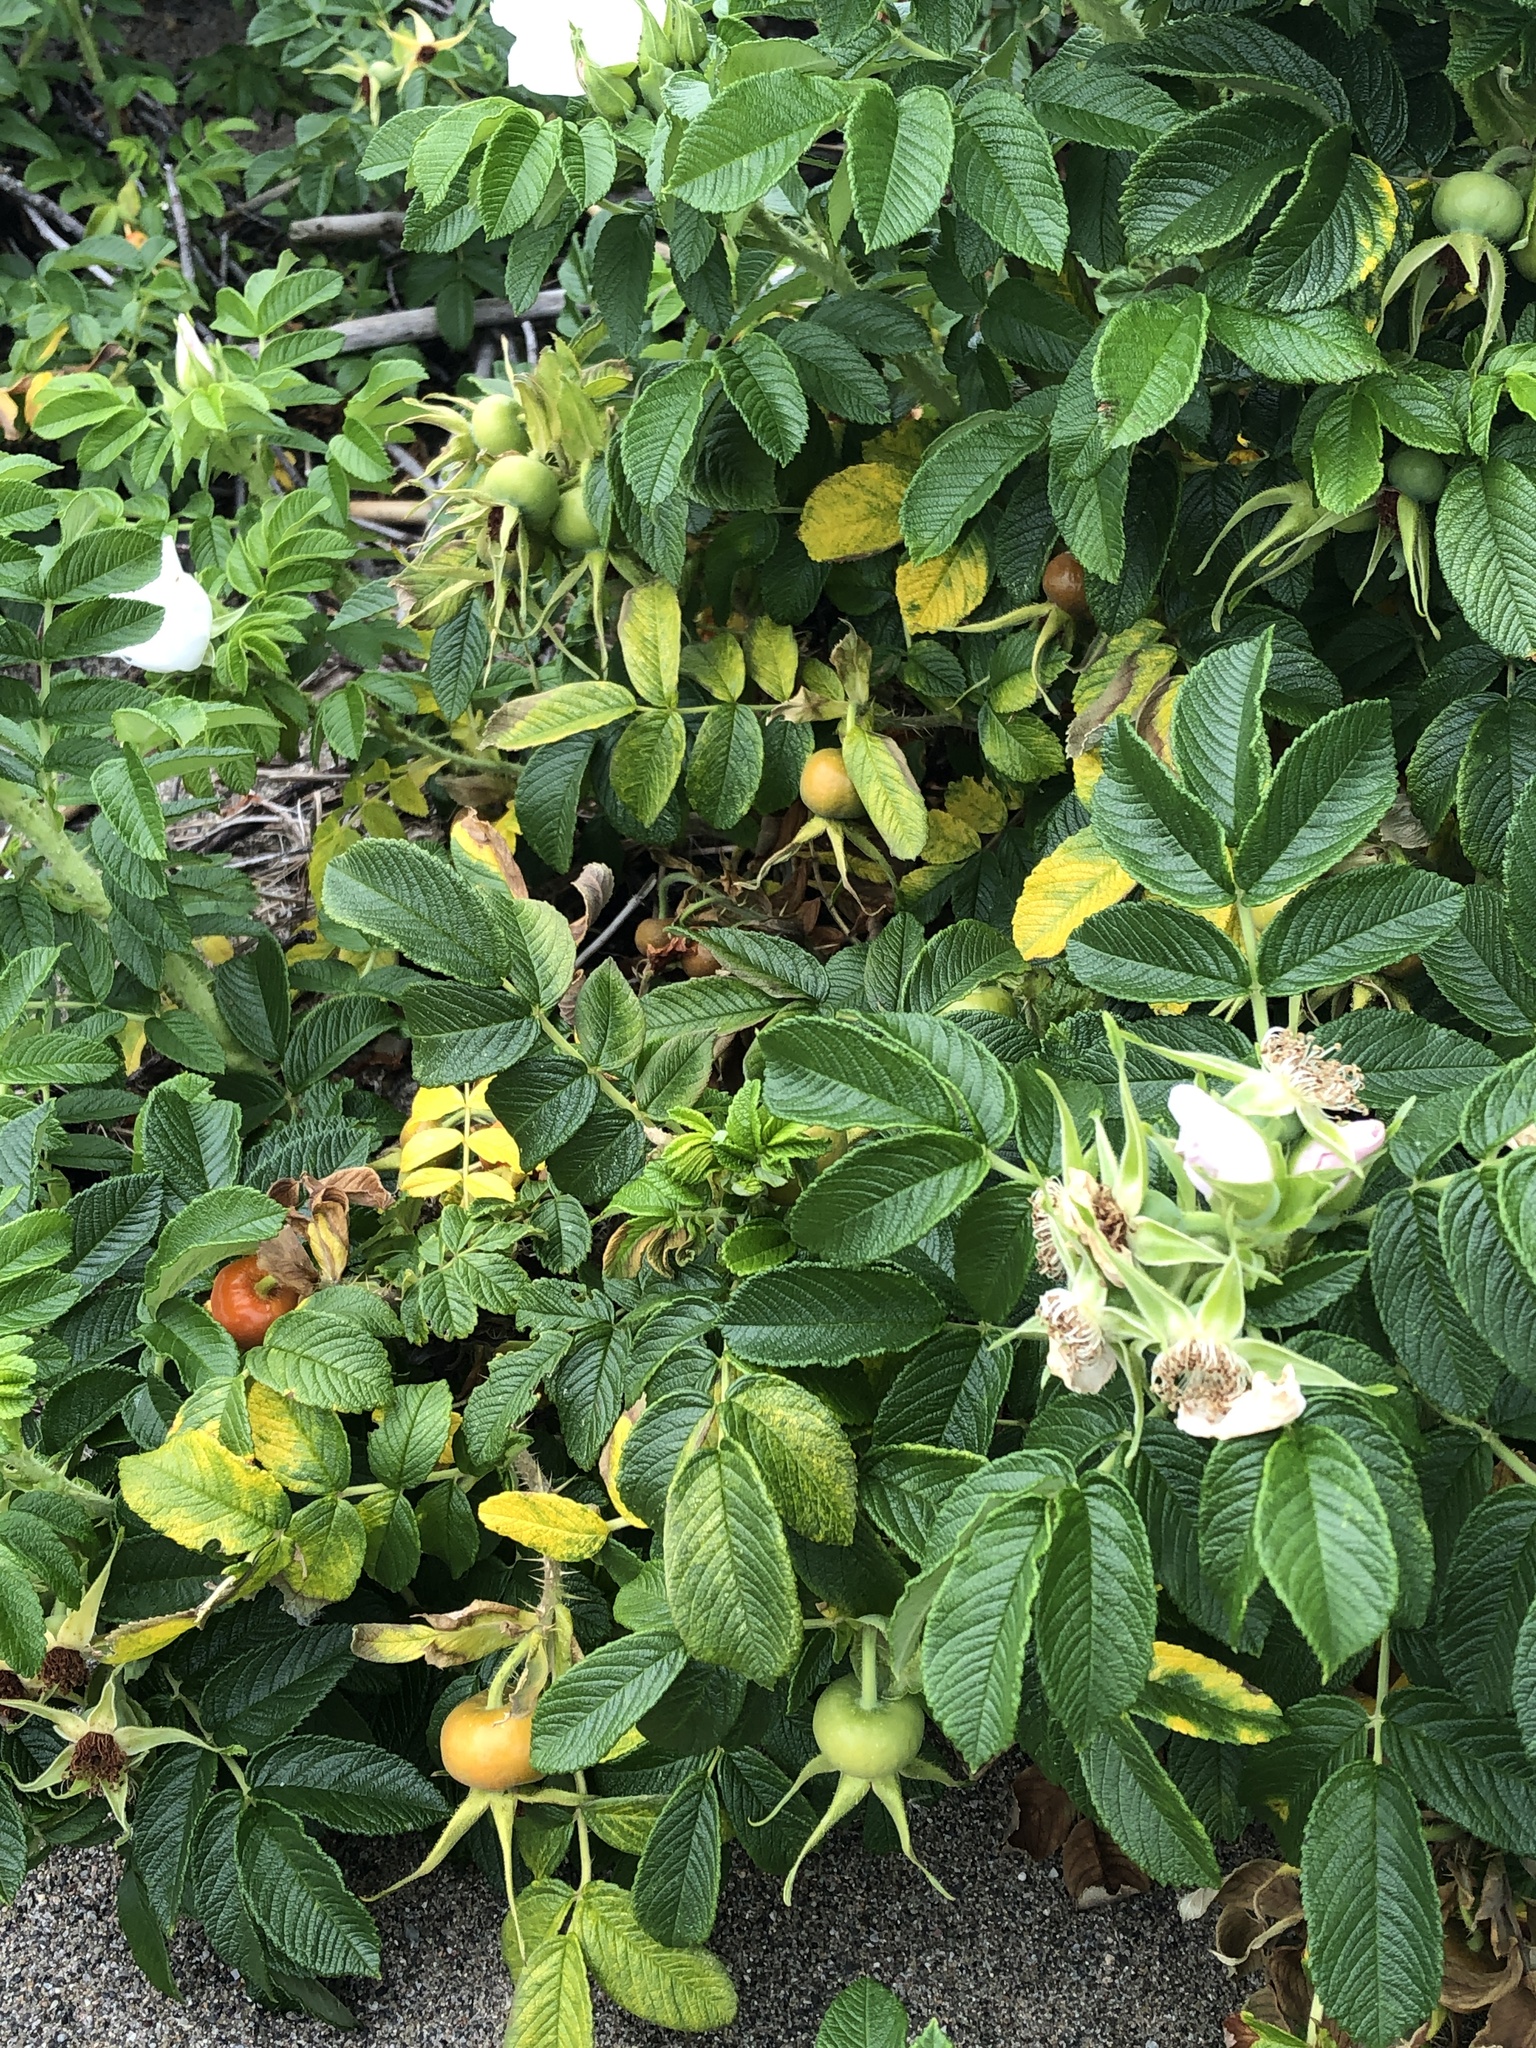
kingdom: Plantae
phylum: Tracheophyta
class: Magnoliopsida
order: Rosales
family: Rosaceae
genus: Rosa
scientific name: Rosa rugosa
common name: Japanese rose
